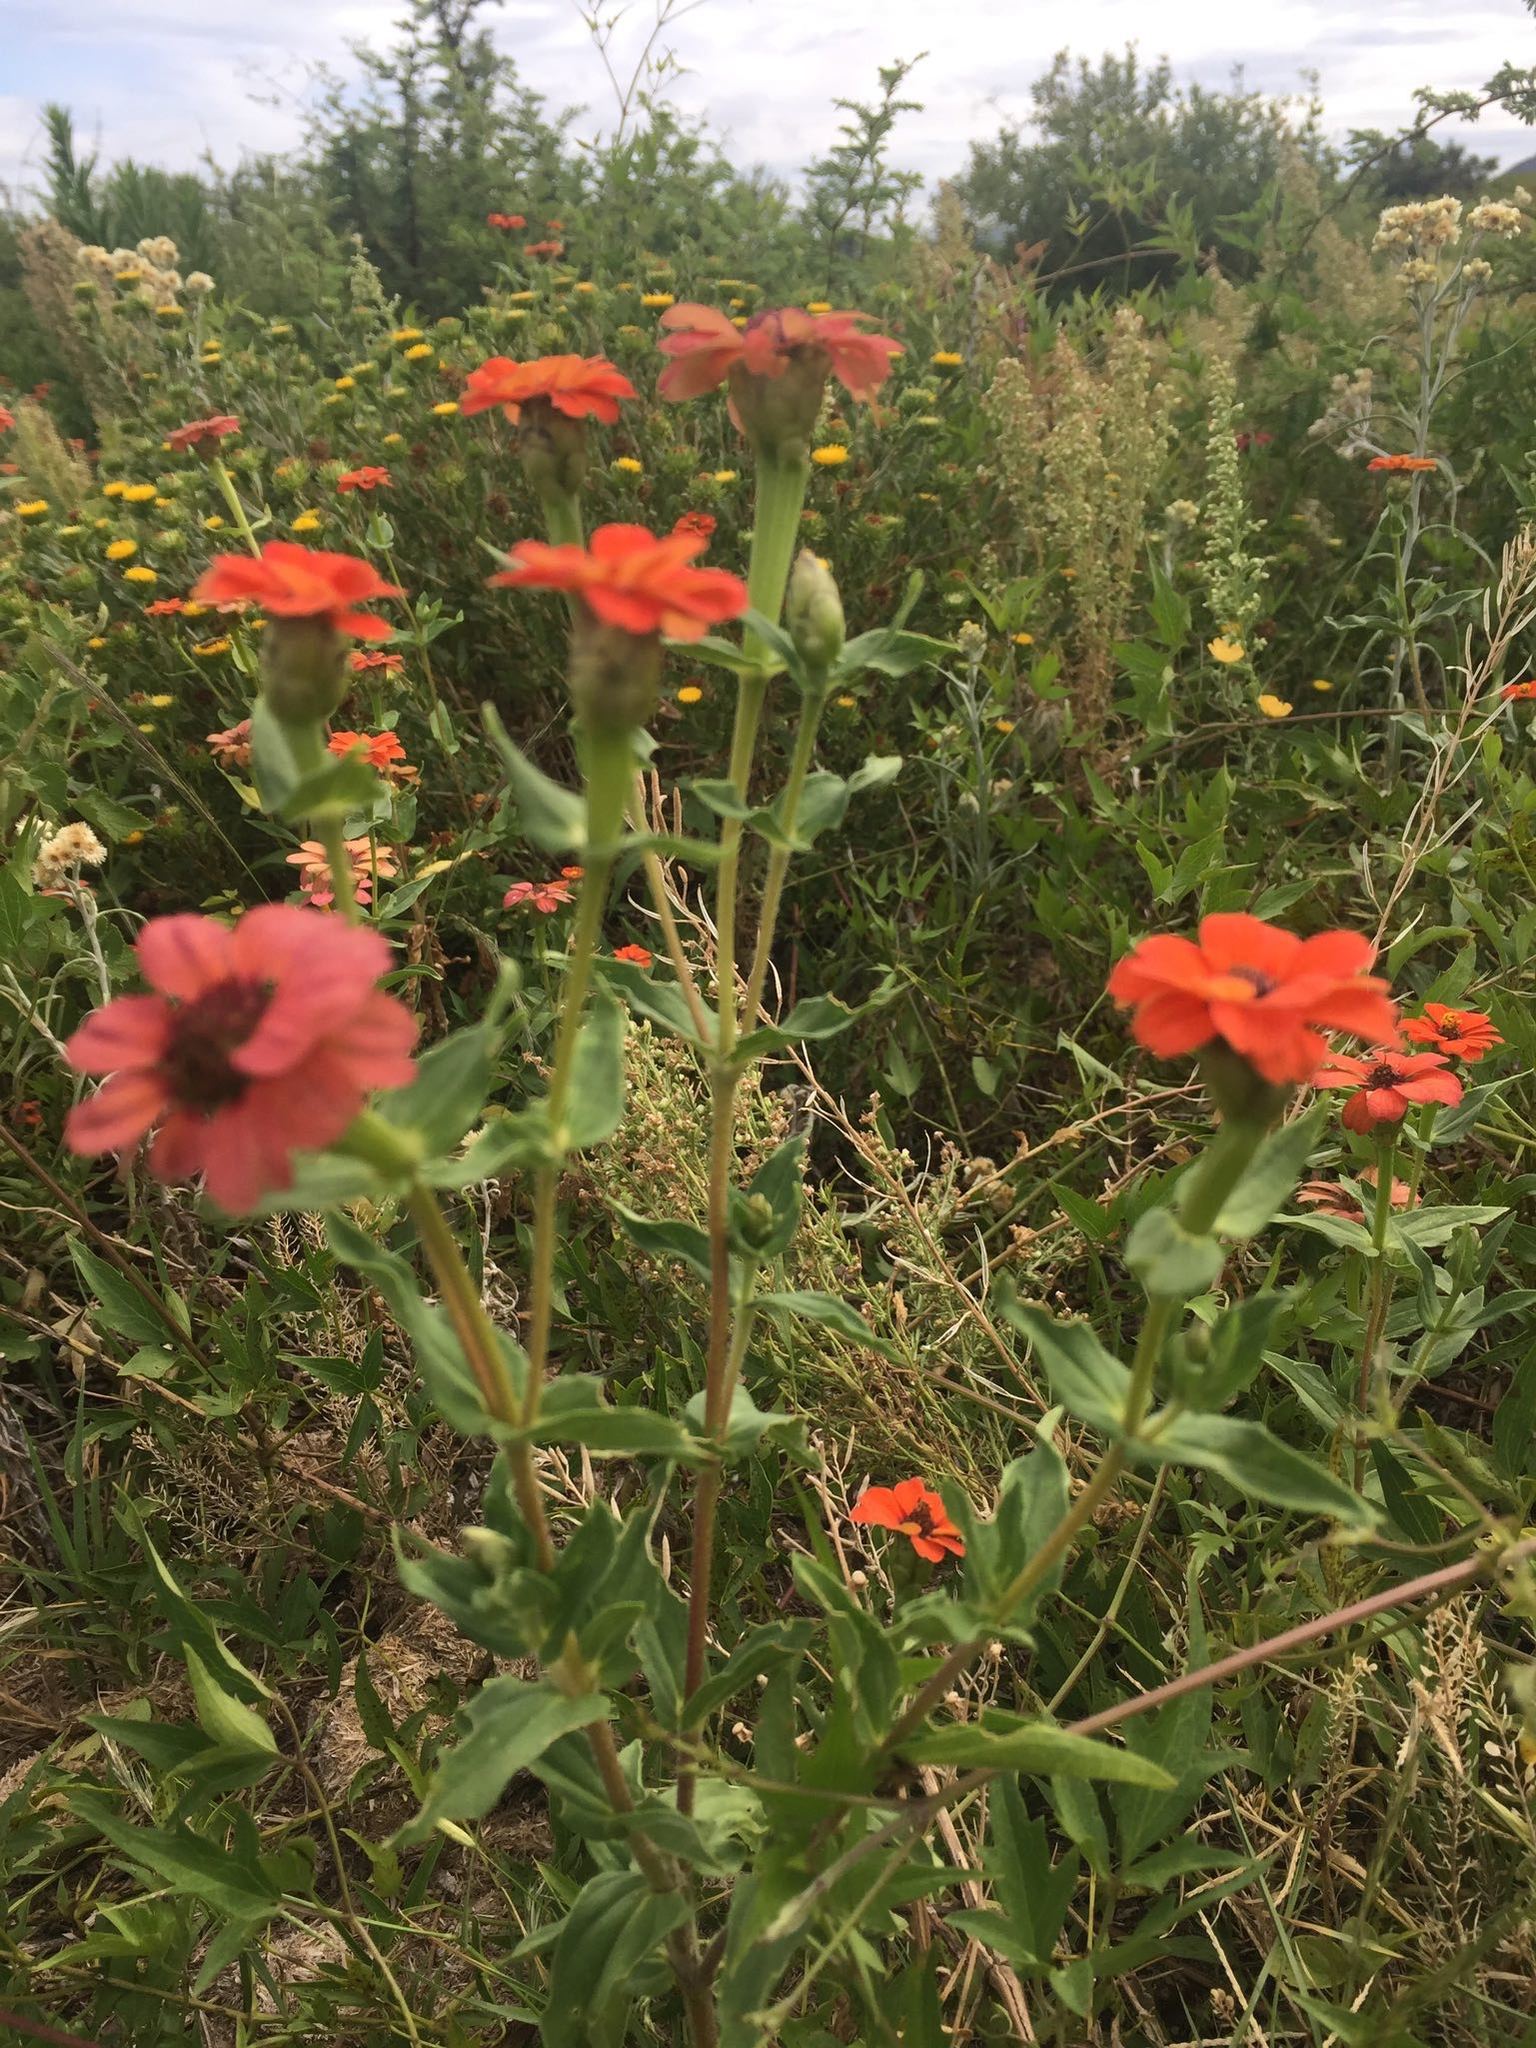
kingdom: Plantae
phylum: Tracheophyta
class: Magnoliopsida
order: Asterales
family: Asteraceae
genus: Zinnia
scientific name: Zinnia peruviana
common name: Peruvian zinnia
